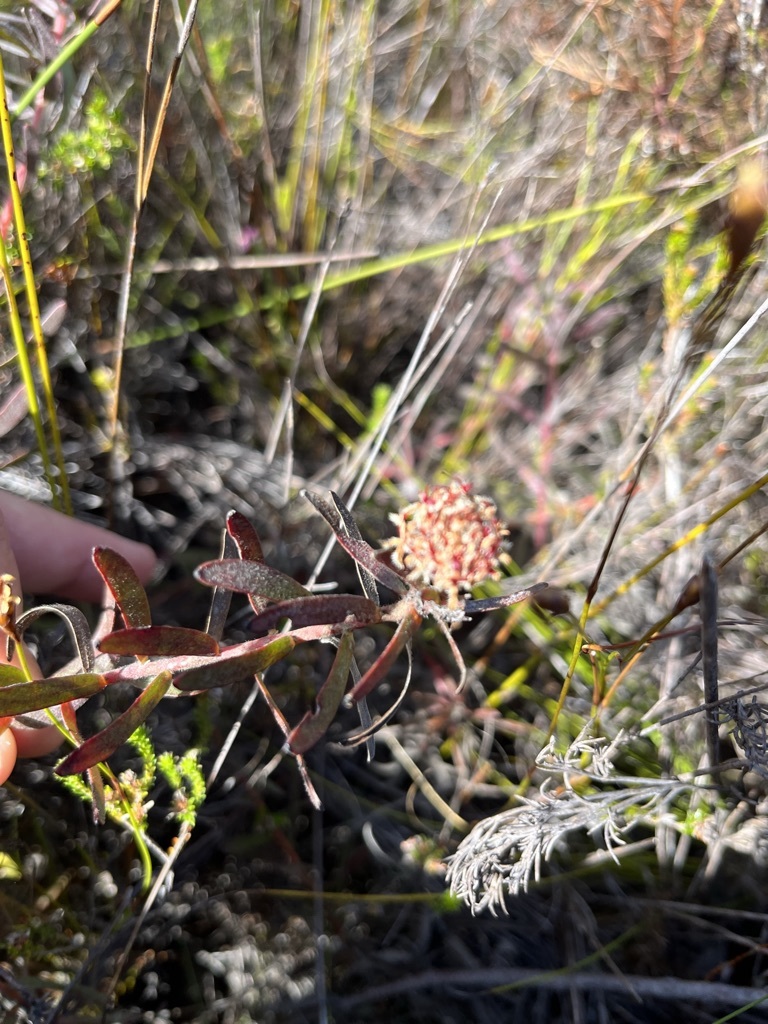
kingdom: Plantae
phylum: Tracheophyta
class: Magnoliopsida
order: Proteales
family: Proteaceae
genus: Leucospermum
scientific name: Leucospermum pedunculatum
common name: White-trailing pincushion
